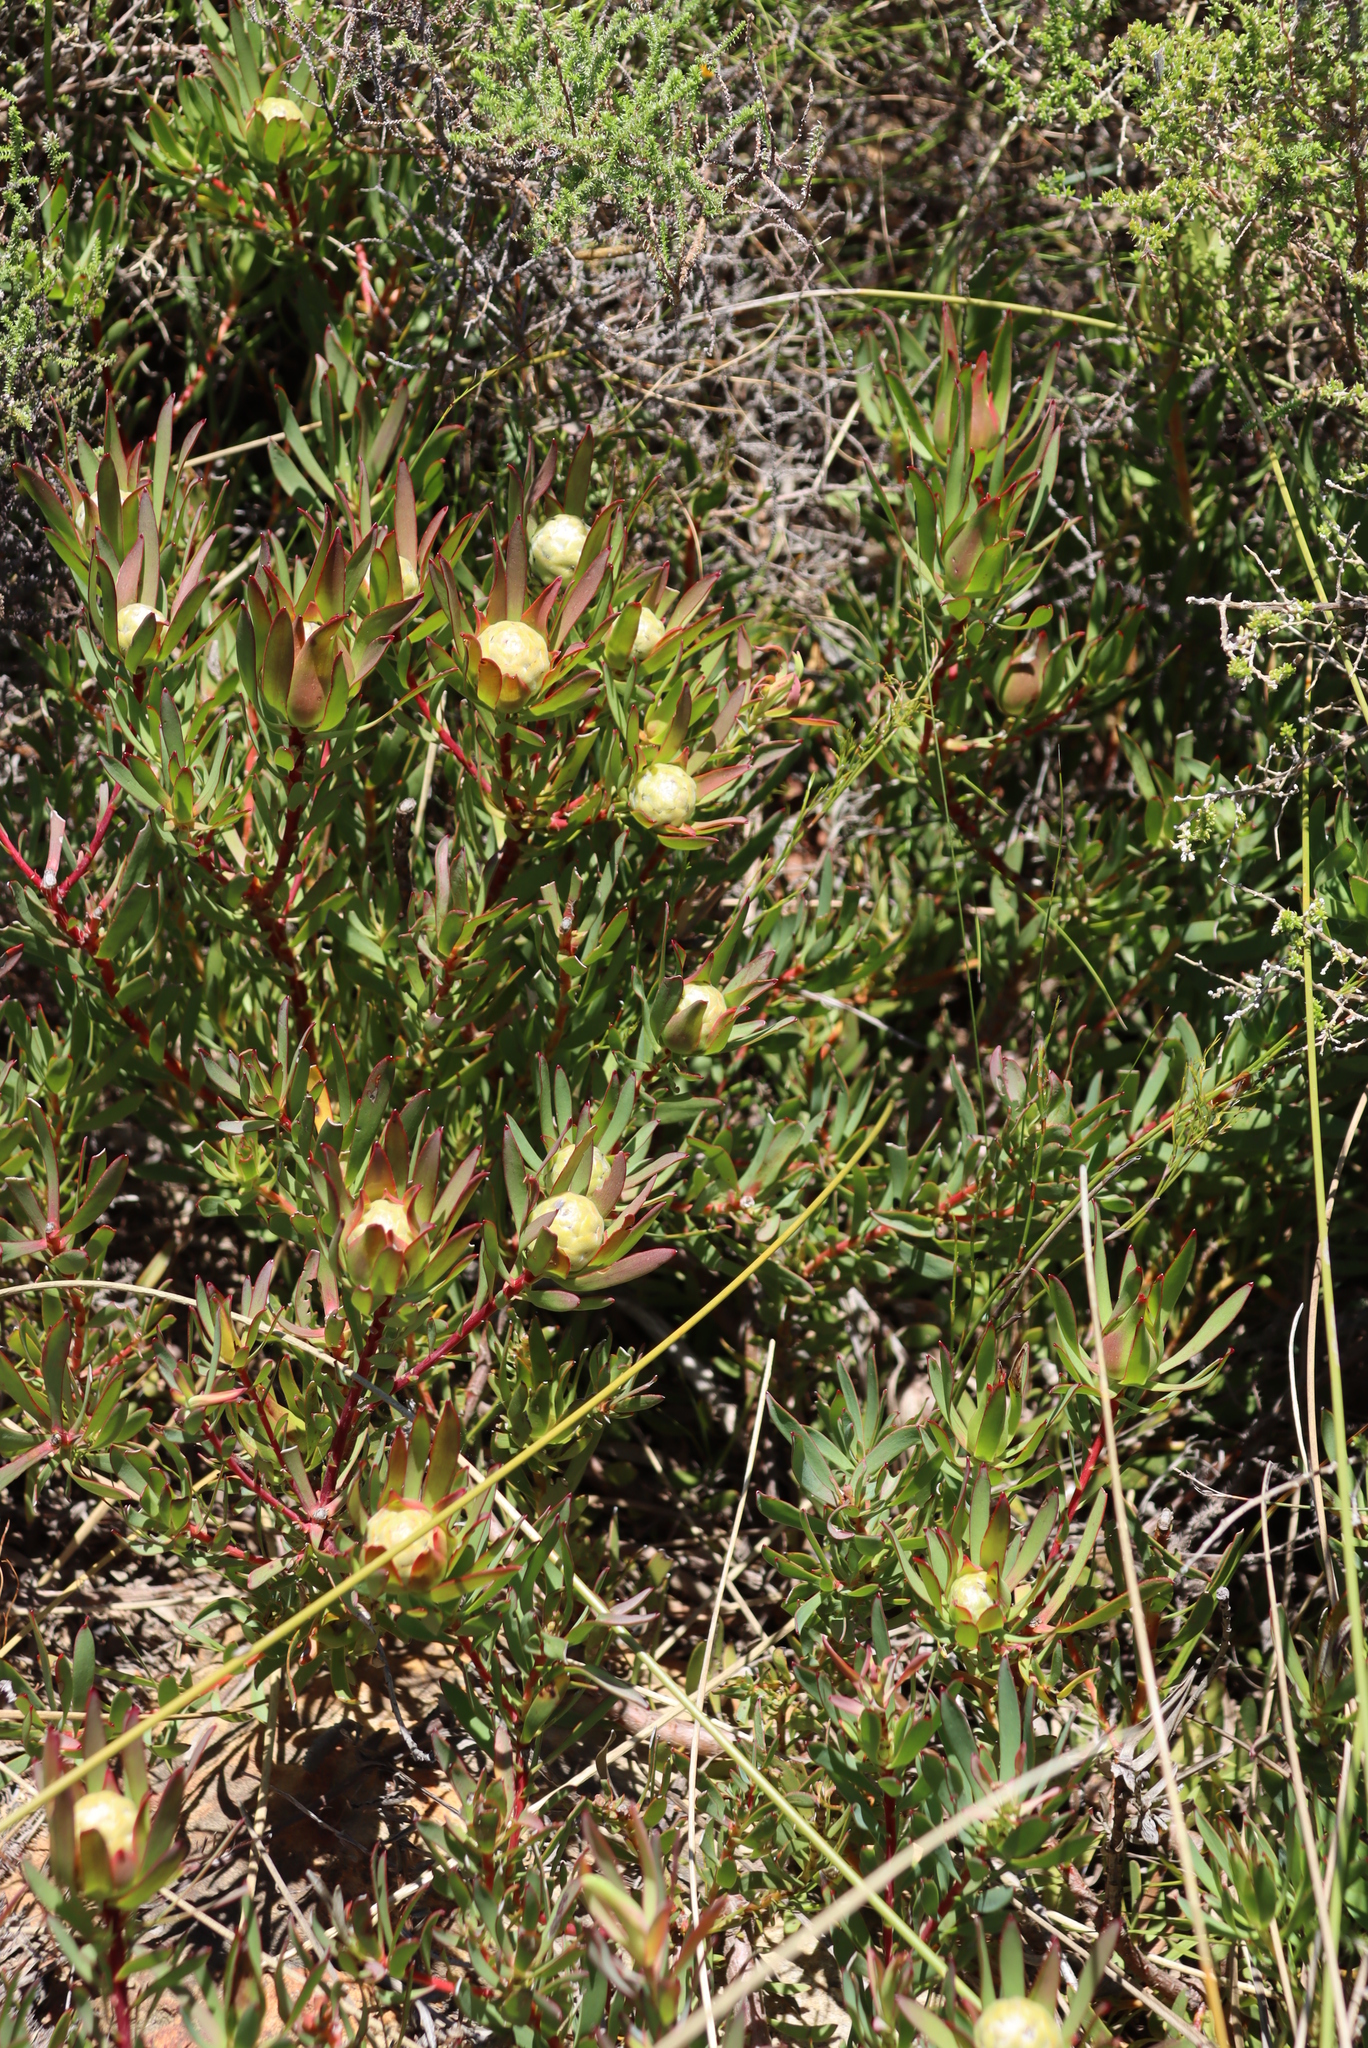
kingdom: Plantae
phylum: Tracheophyta
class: Magnoliopsida
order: Proteales
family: Proteaceae
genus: Leucadendron
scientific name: Leucadendron salignum
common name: Common sunshine conebush
